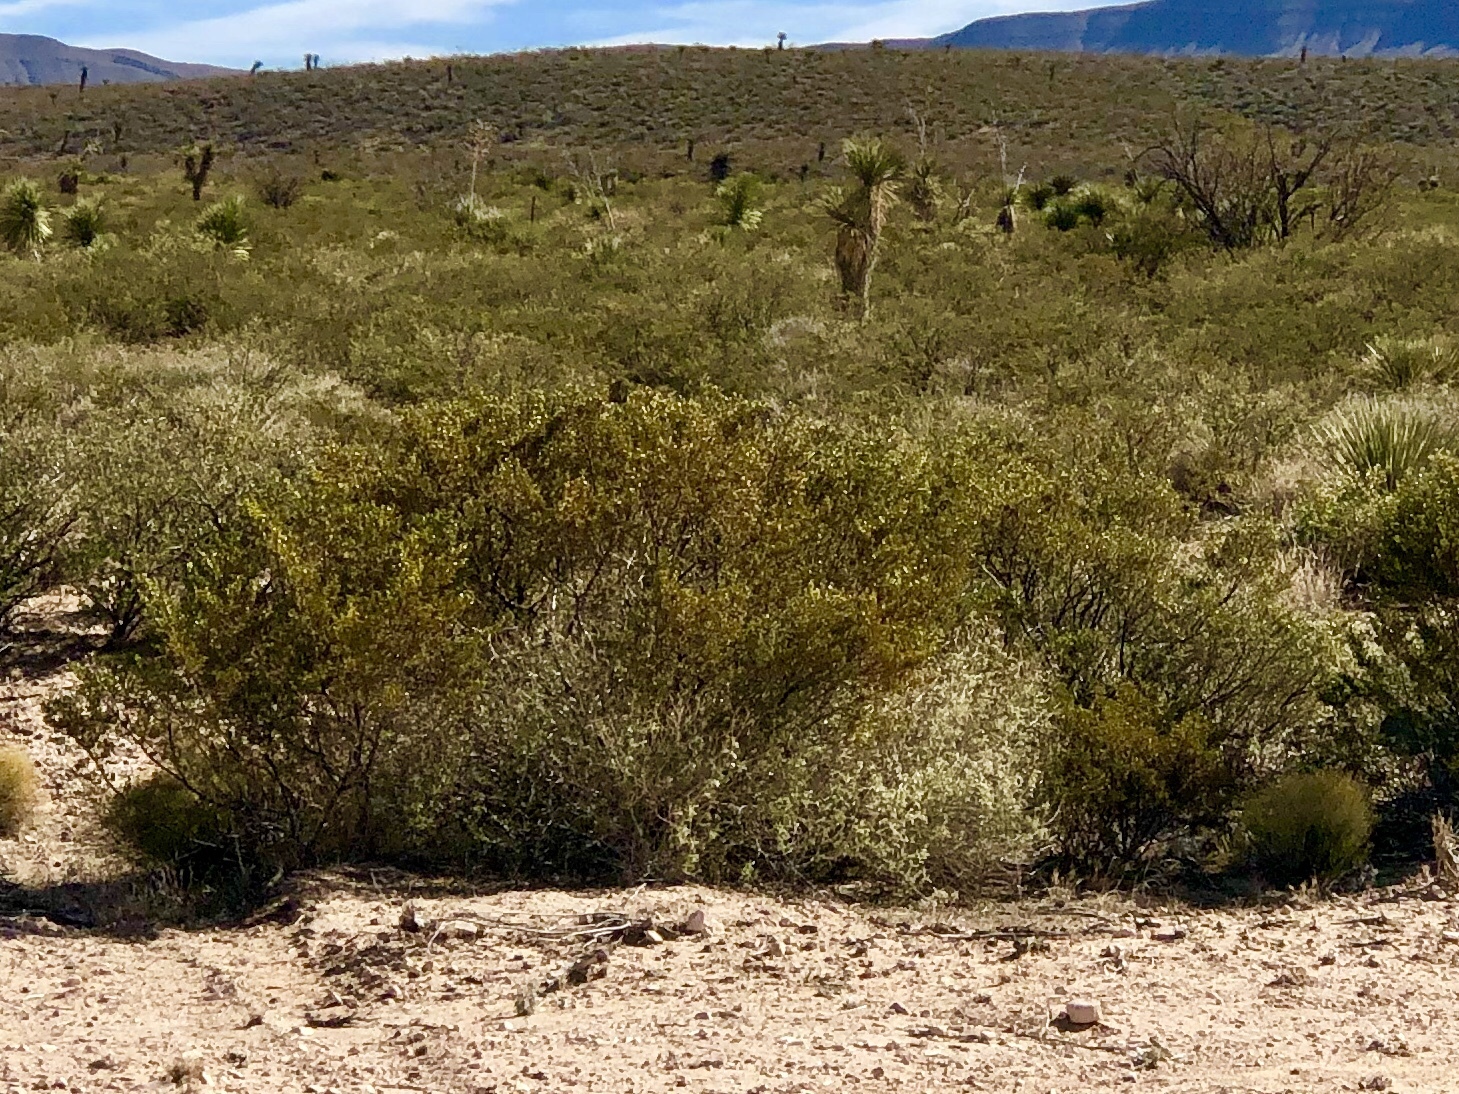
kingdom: Plantae
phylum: Tracheophyta
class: Magnoliopsida
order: Zygophyllales
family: Zygophyllaceae
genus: Larrea
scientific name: Larrea tridentata
